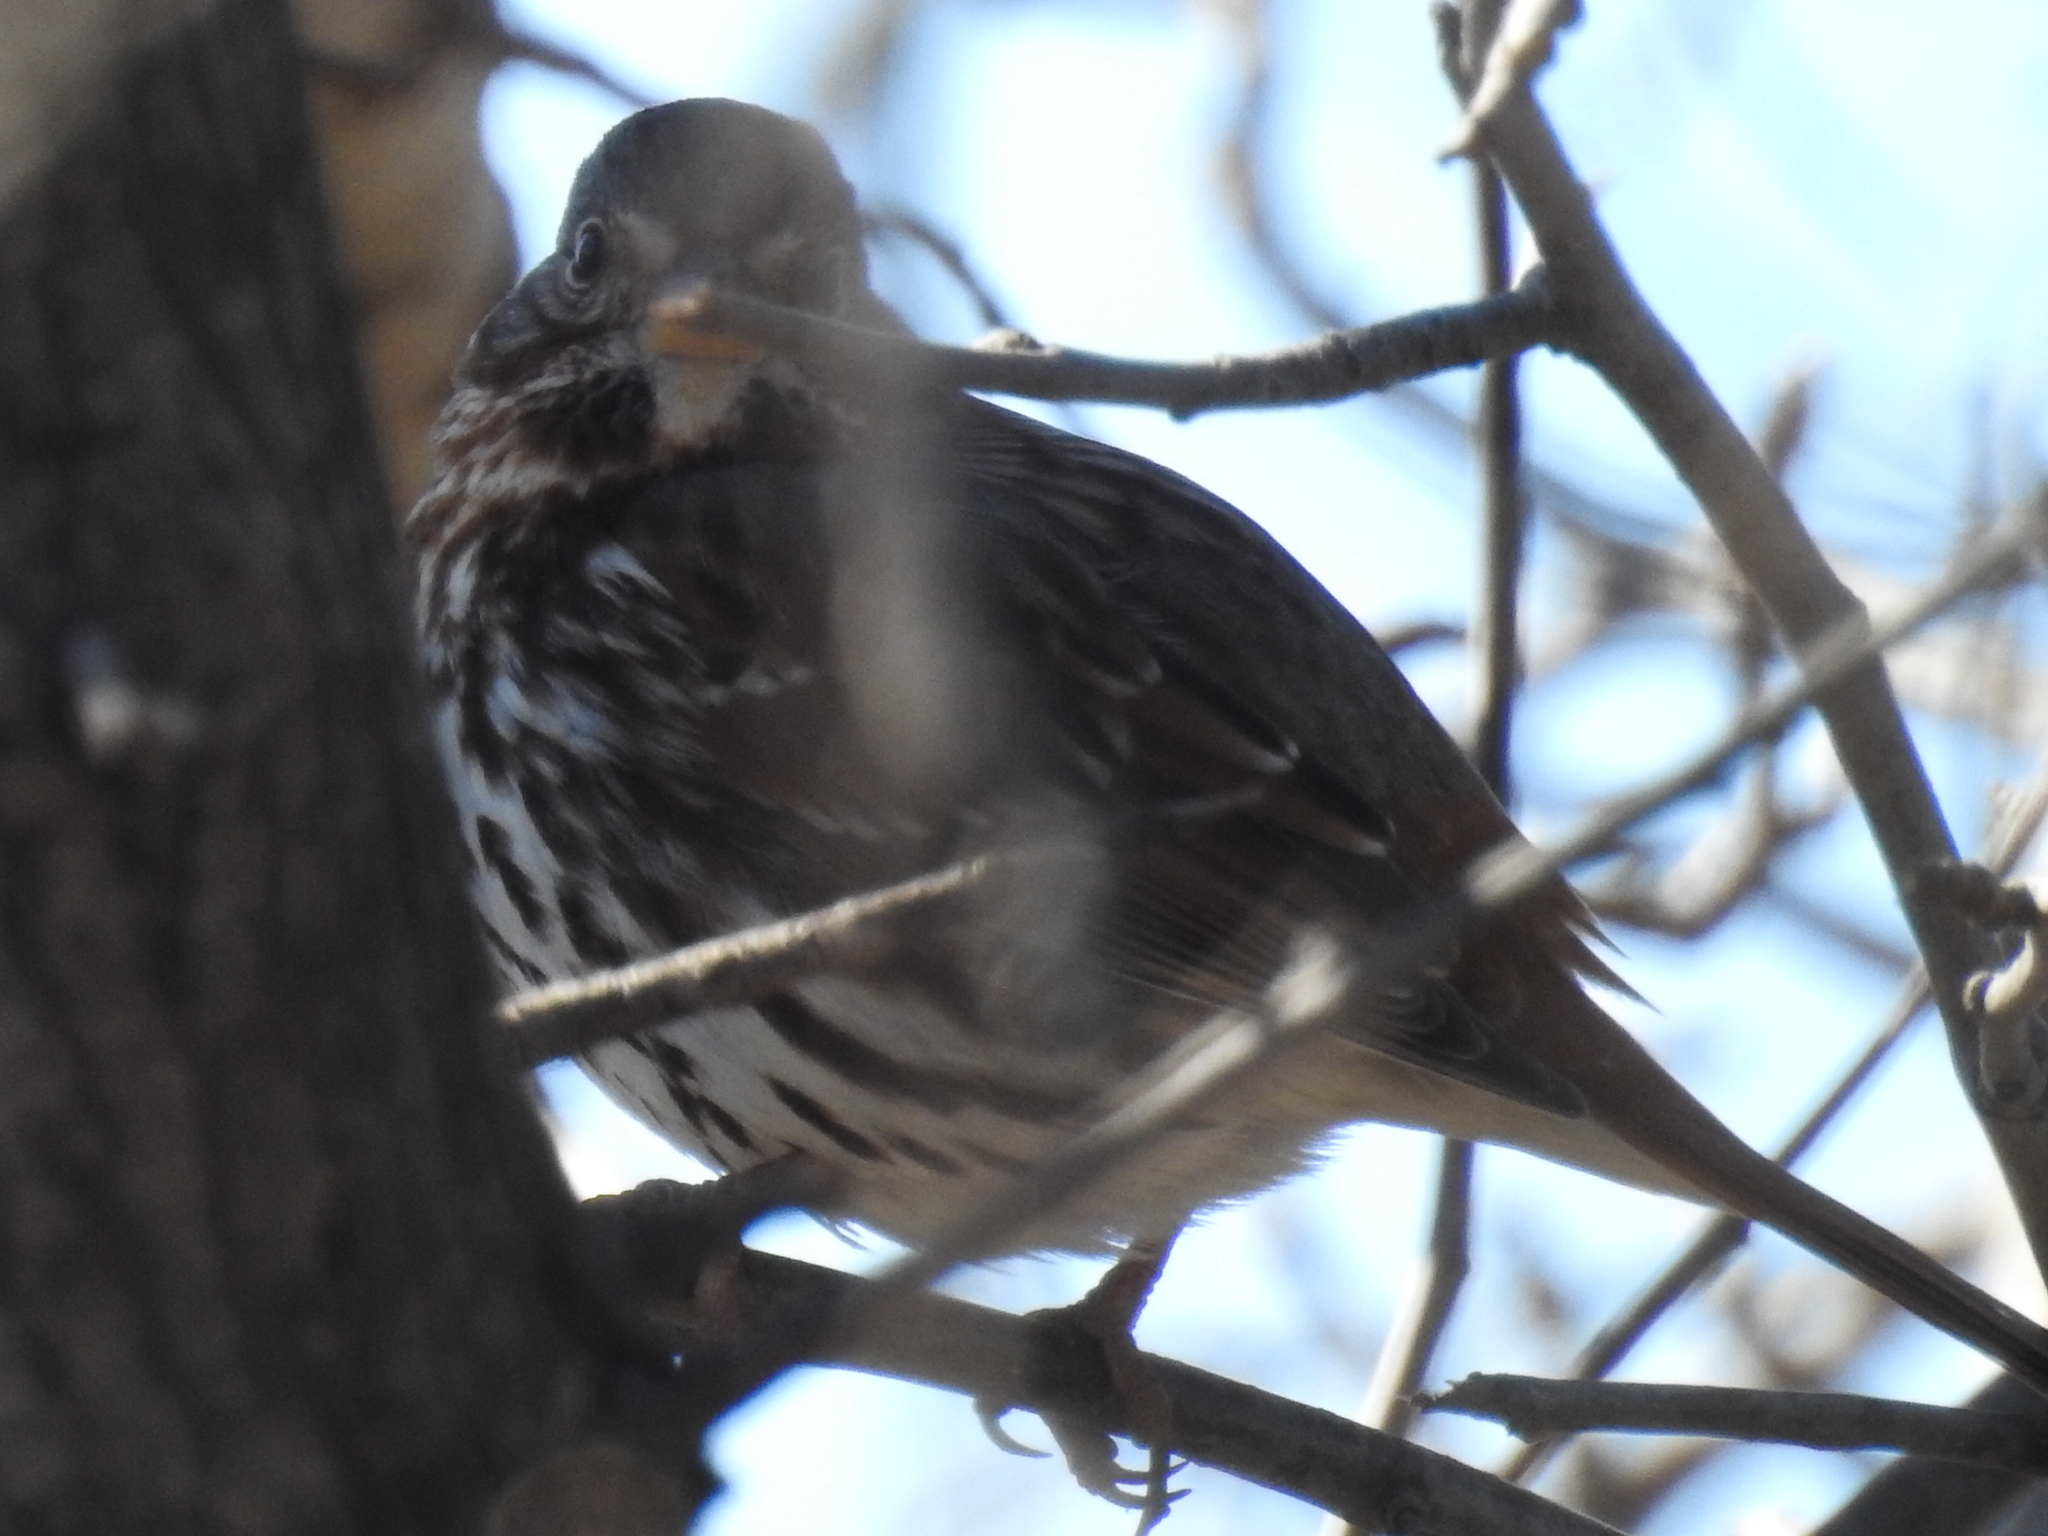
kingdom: Animalia
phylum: Chordata
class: Aves
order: Passeriformes
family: Passerellidae
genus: Passerella
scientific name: Passerella iliaca
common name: Fox sparrow
